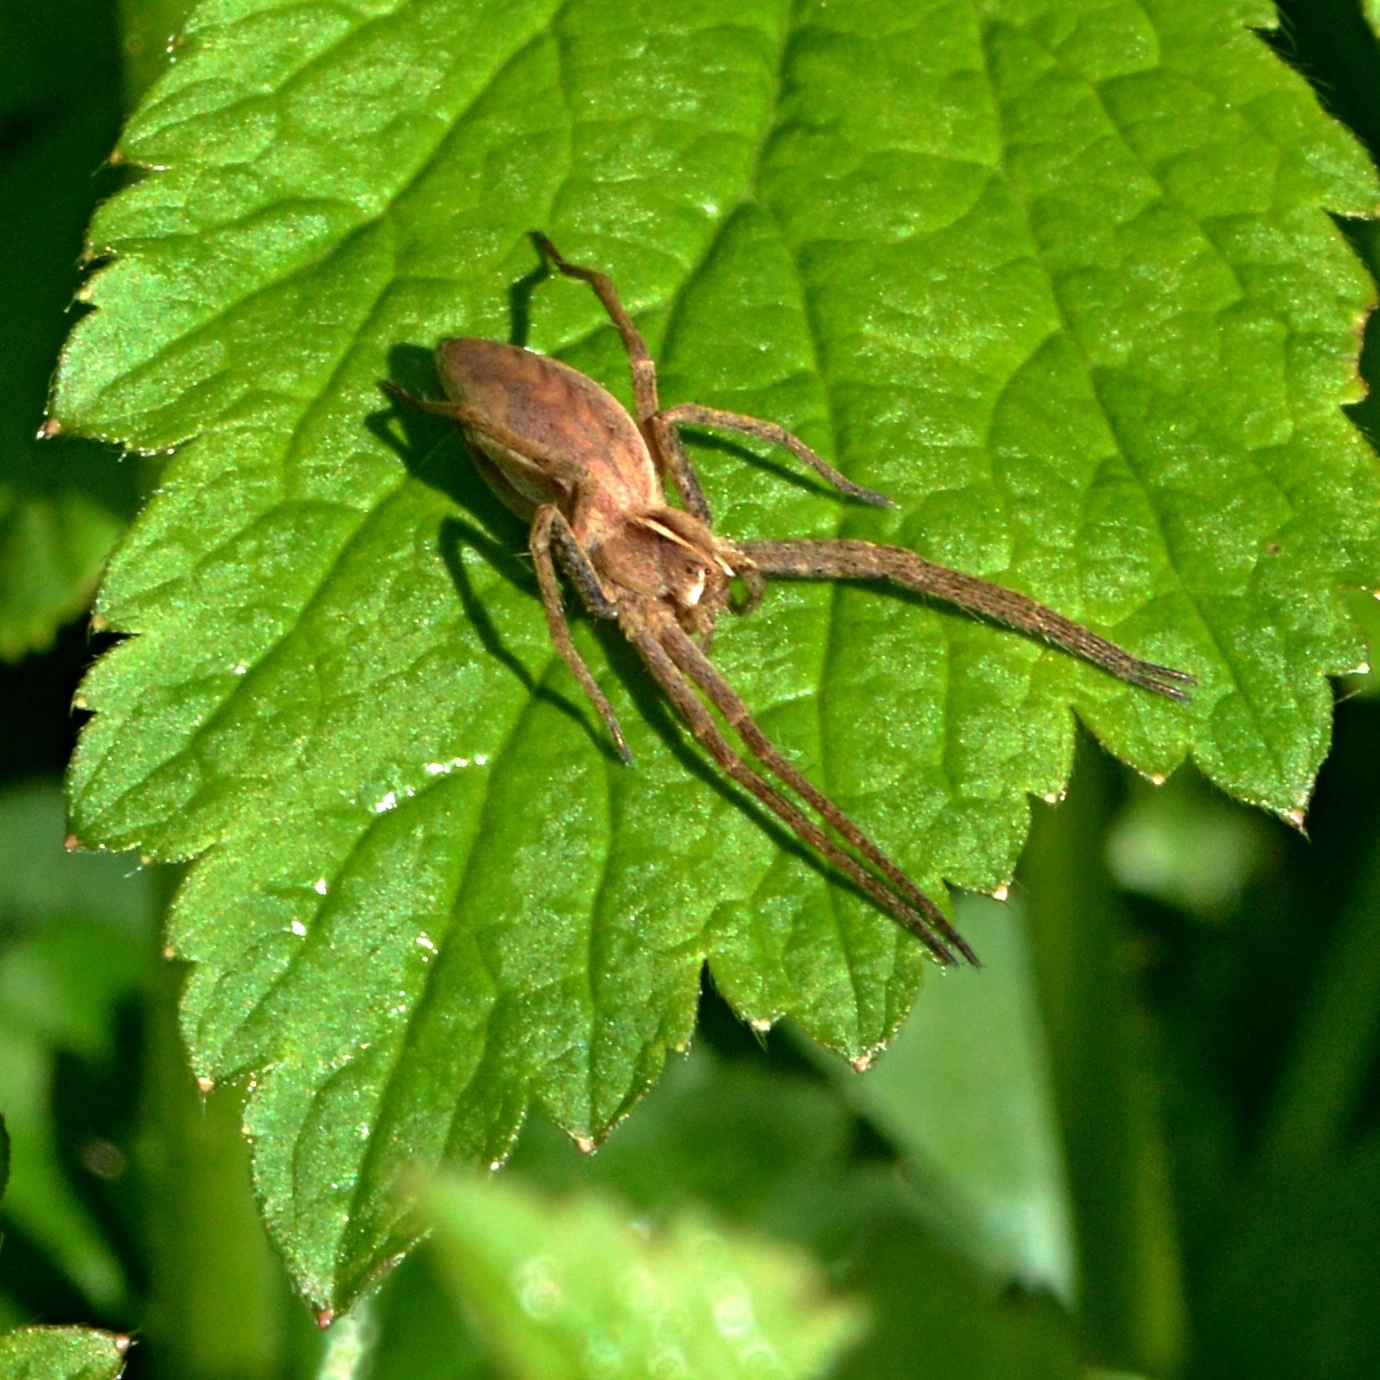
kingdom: Animalia
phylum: Arthropoda
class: Arachnida
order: Araneae
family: Pisauridae
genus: Pisaura
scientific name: Pisaura mirabilis
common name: Tent spider
